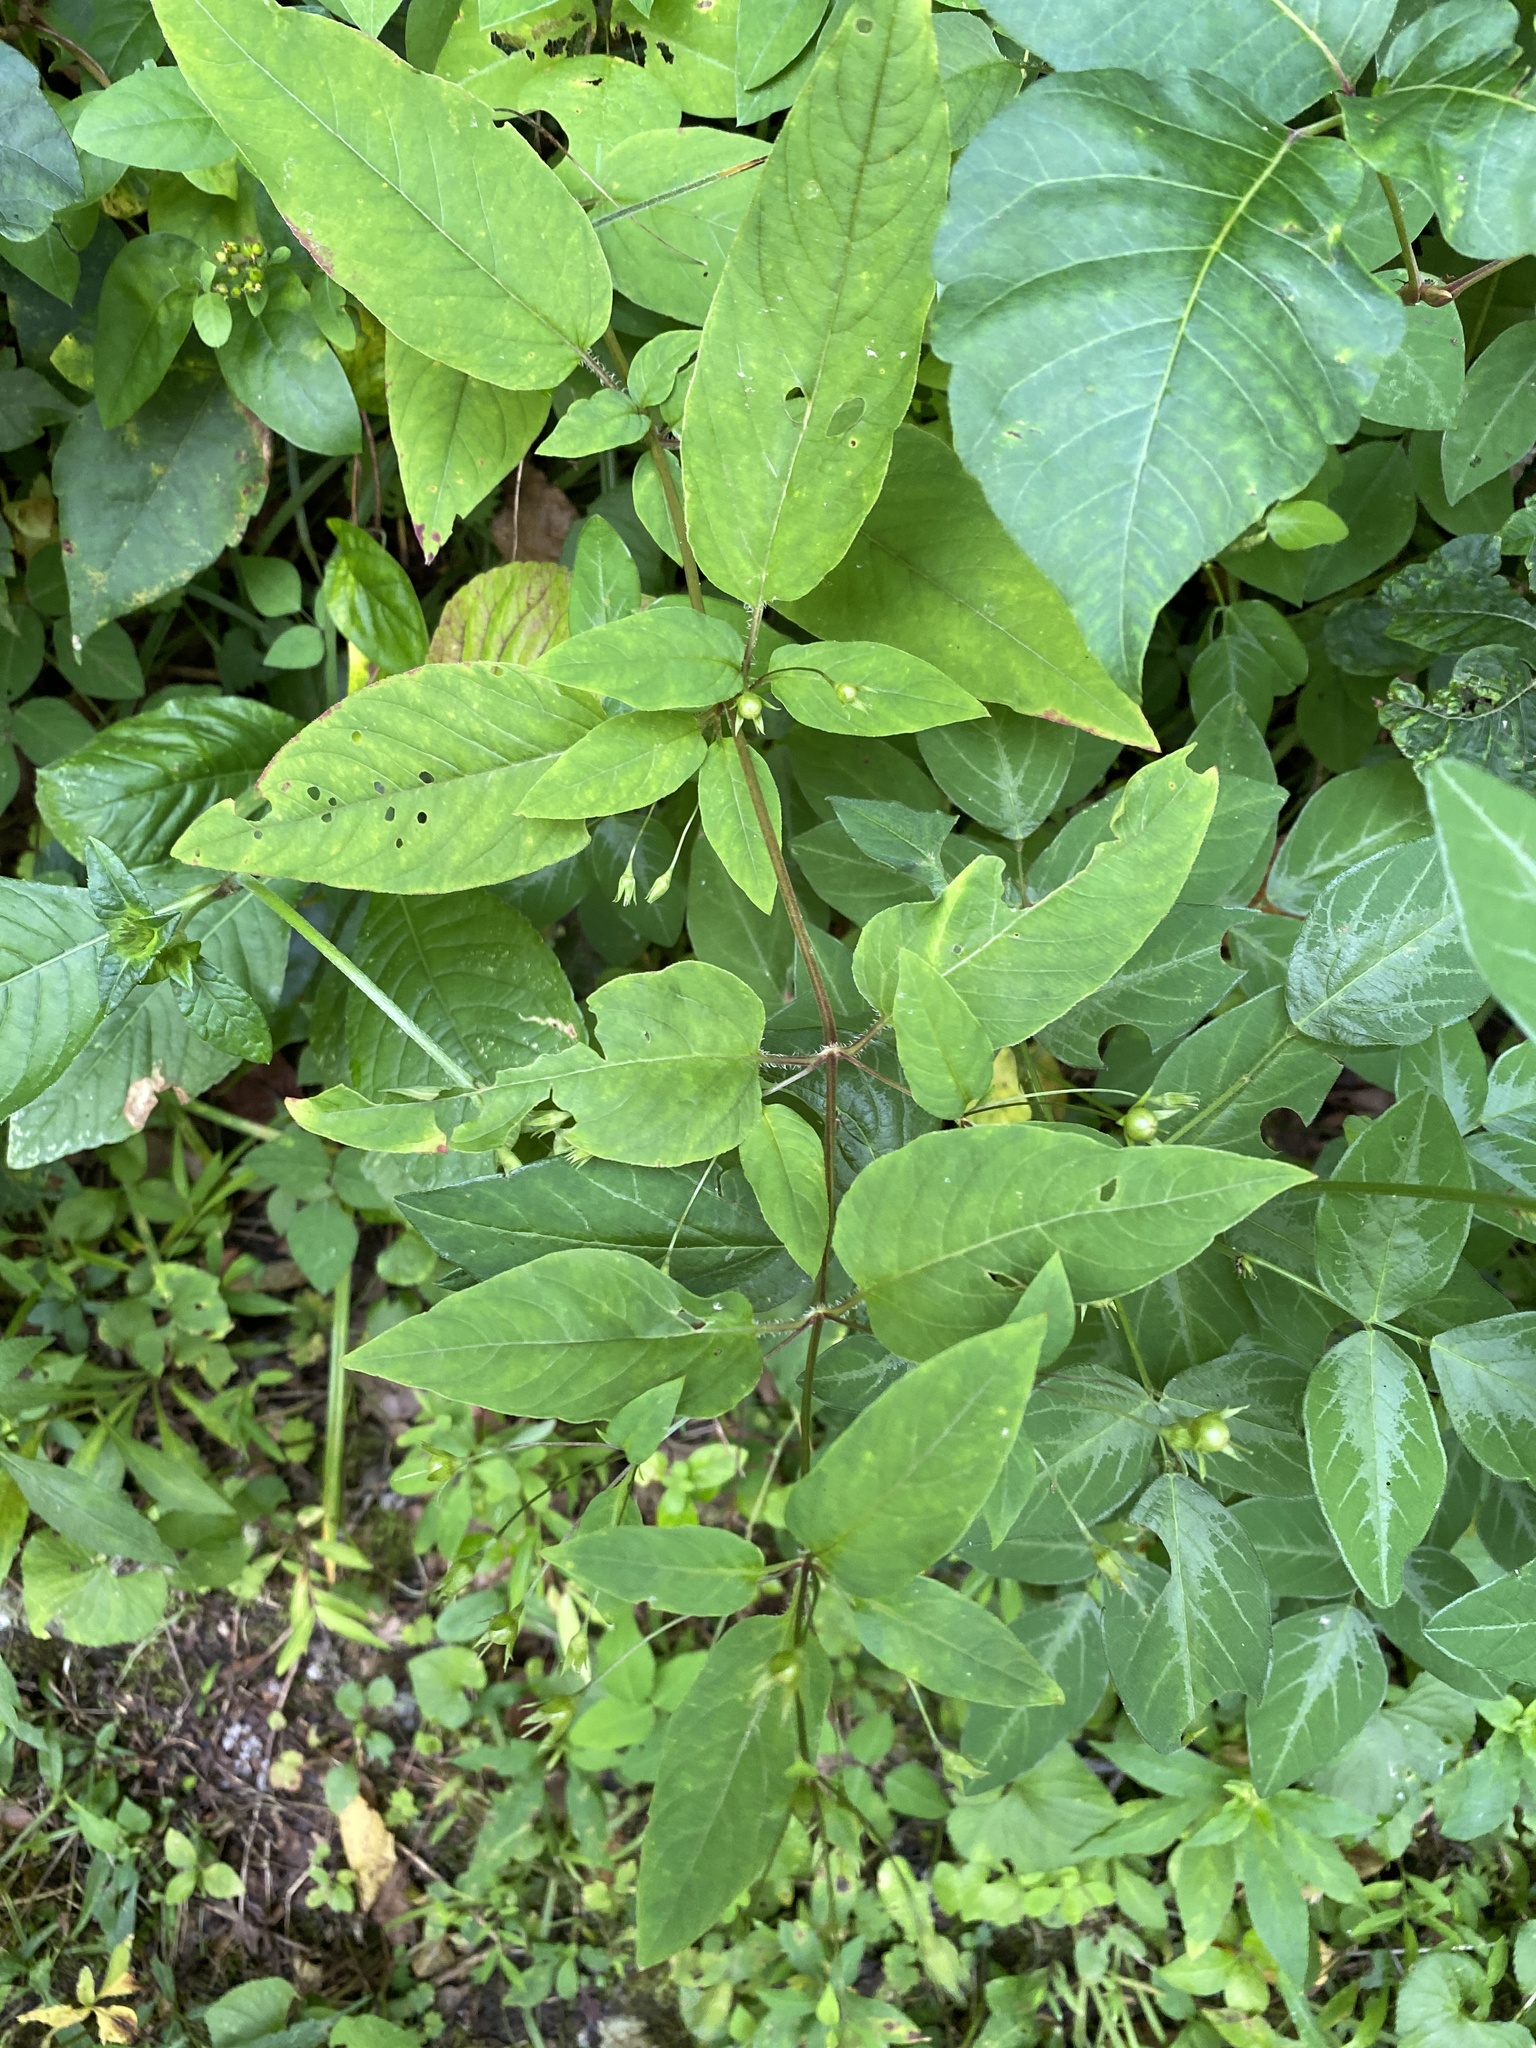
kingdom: Plantae
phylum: Tracheophyta
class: Magnoliopsida
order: Ericales
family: Primulaceae
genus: Lysimachia
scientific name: Lysimachia ciliata
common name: Fringed loosestrife
